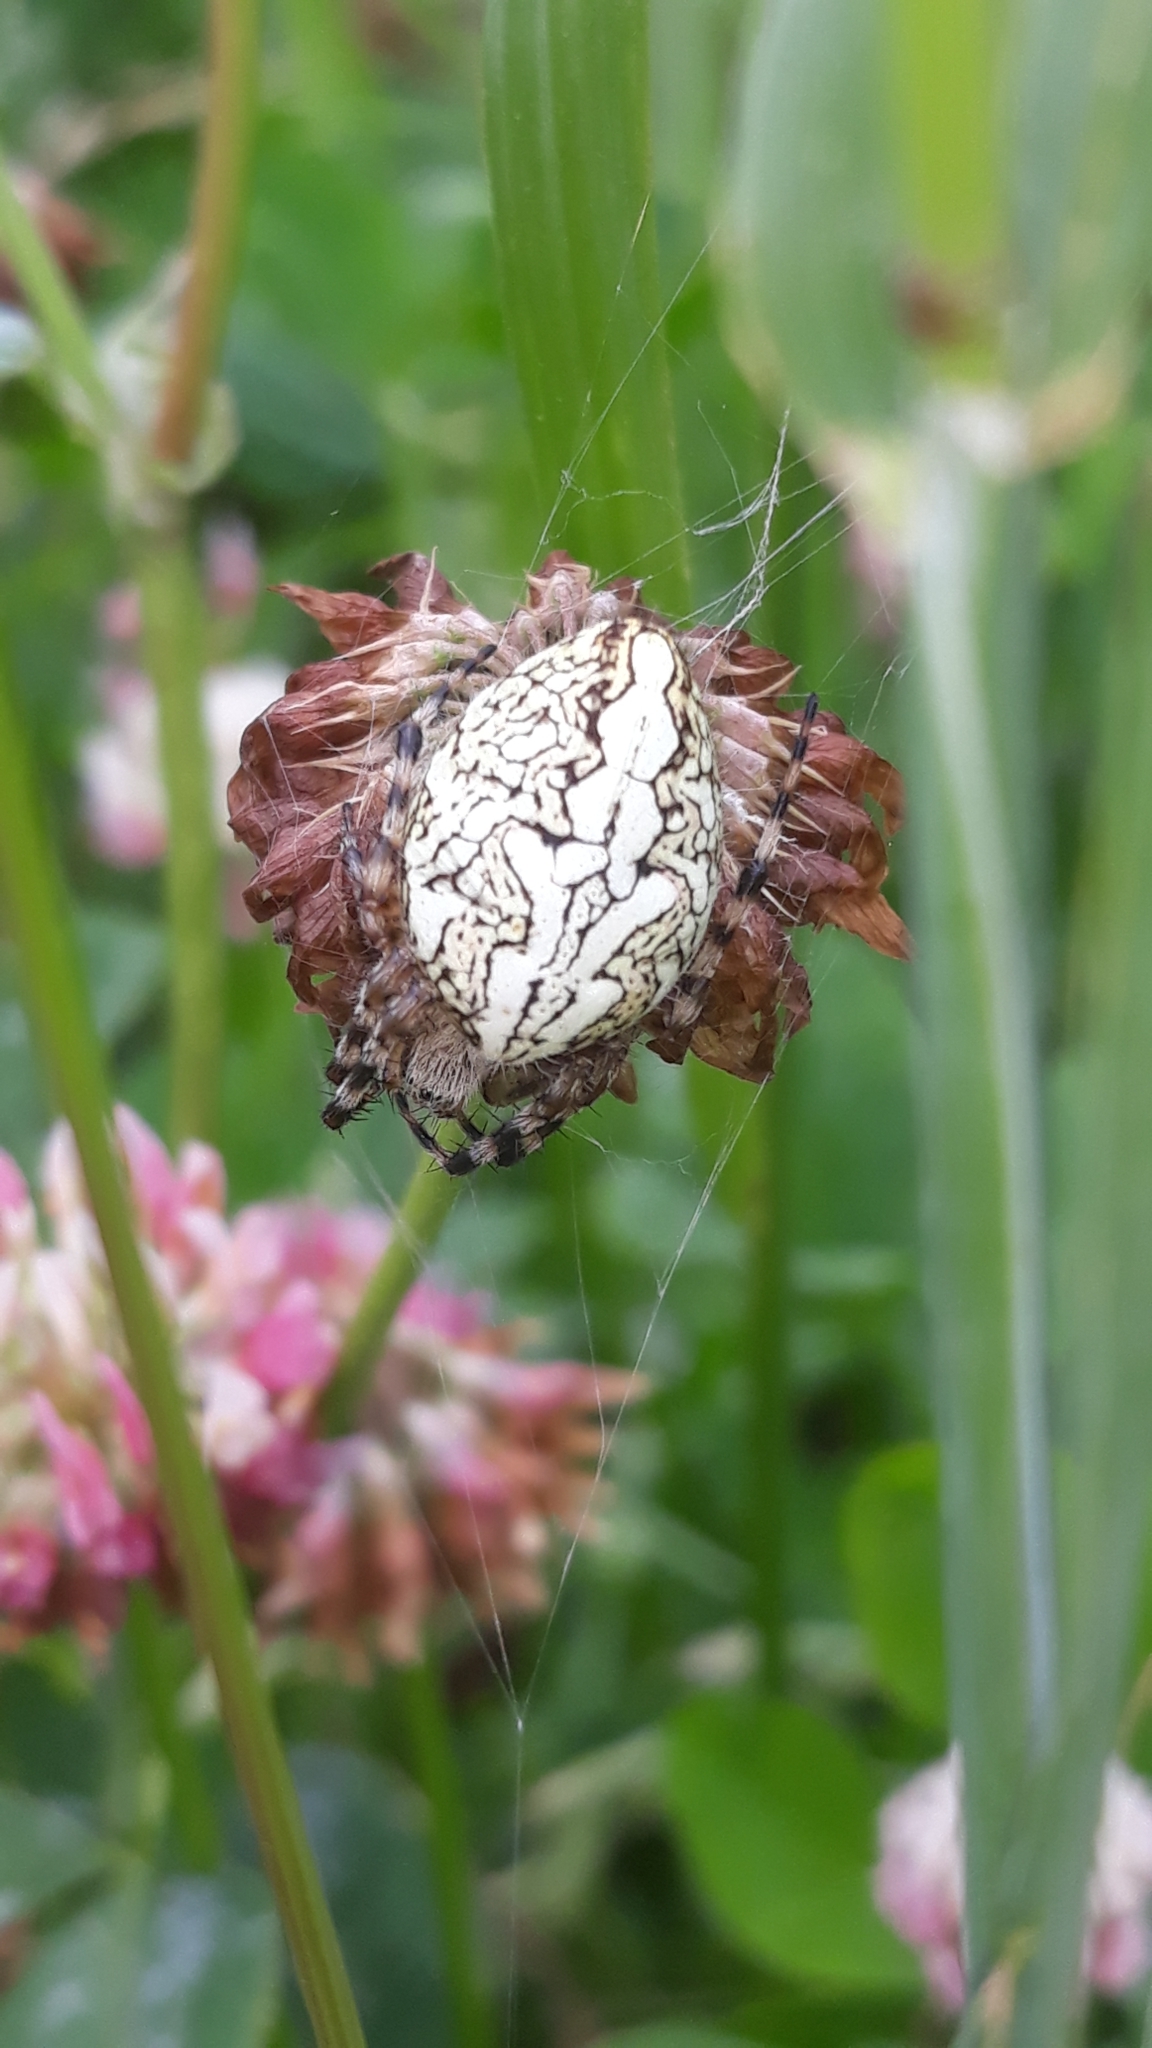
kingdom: Animalia
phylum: Arthropoda
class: Arachnida
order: Araneae
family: Araneidae
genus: Aculepeira
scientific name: Aculepeira ceropegia
